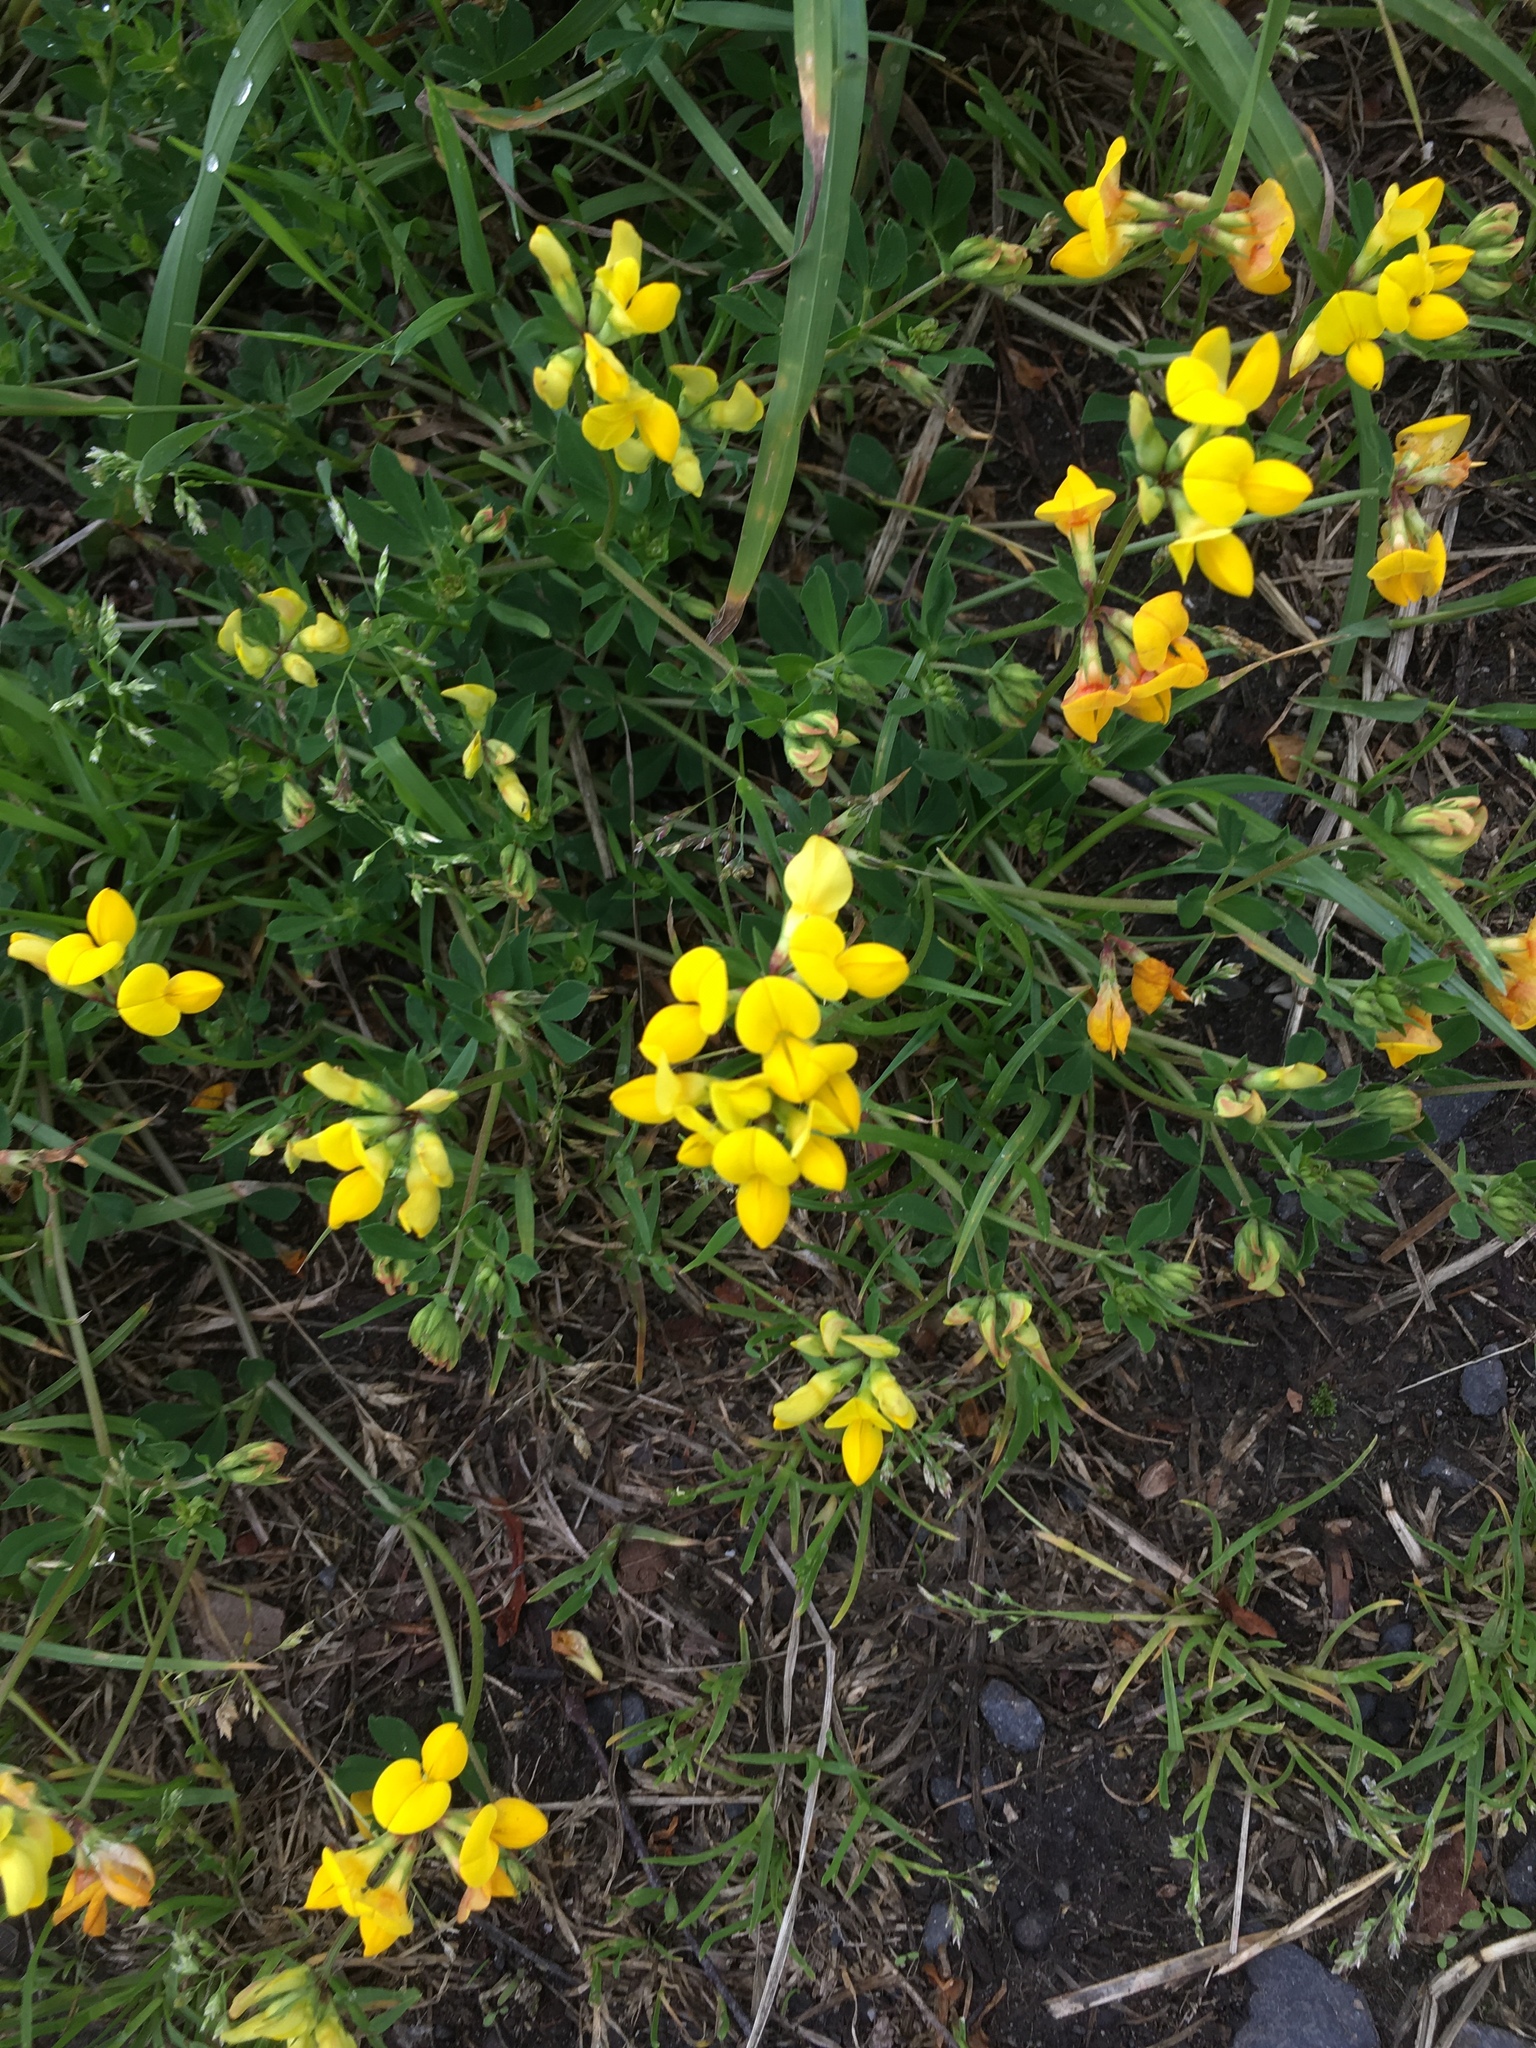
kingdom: Plantae
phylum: Tracheophyta
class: Magnoliopsida
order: Fabales
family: Fabaceae
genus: Lotus
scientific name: Lotus corniculatus
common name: Common bird's-foot-trefoil
